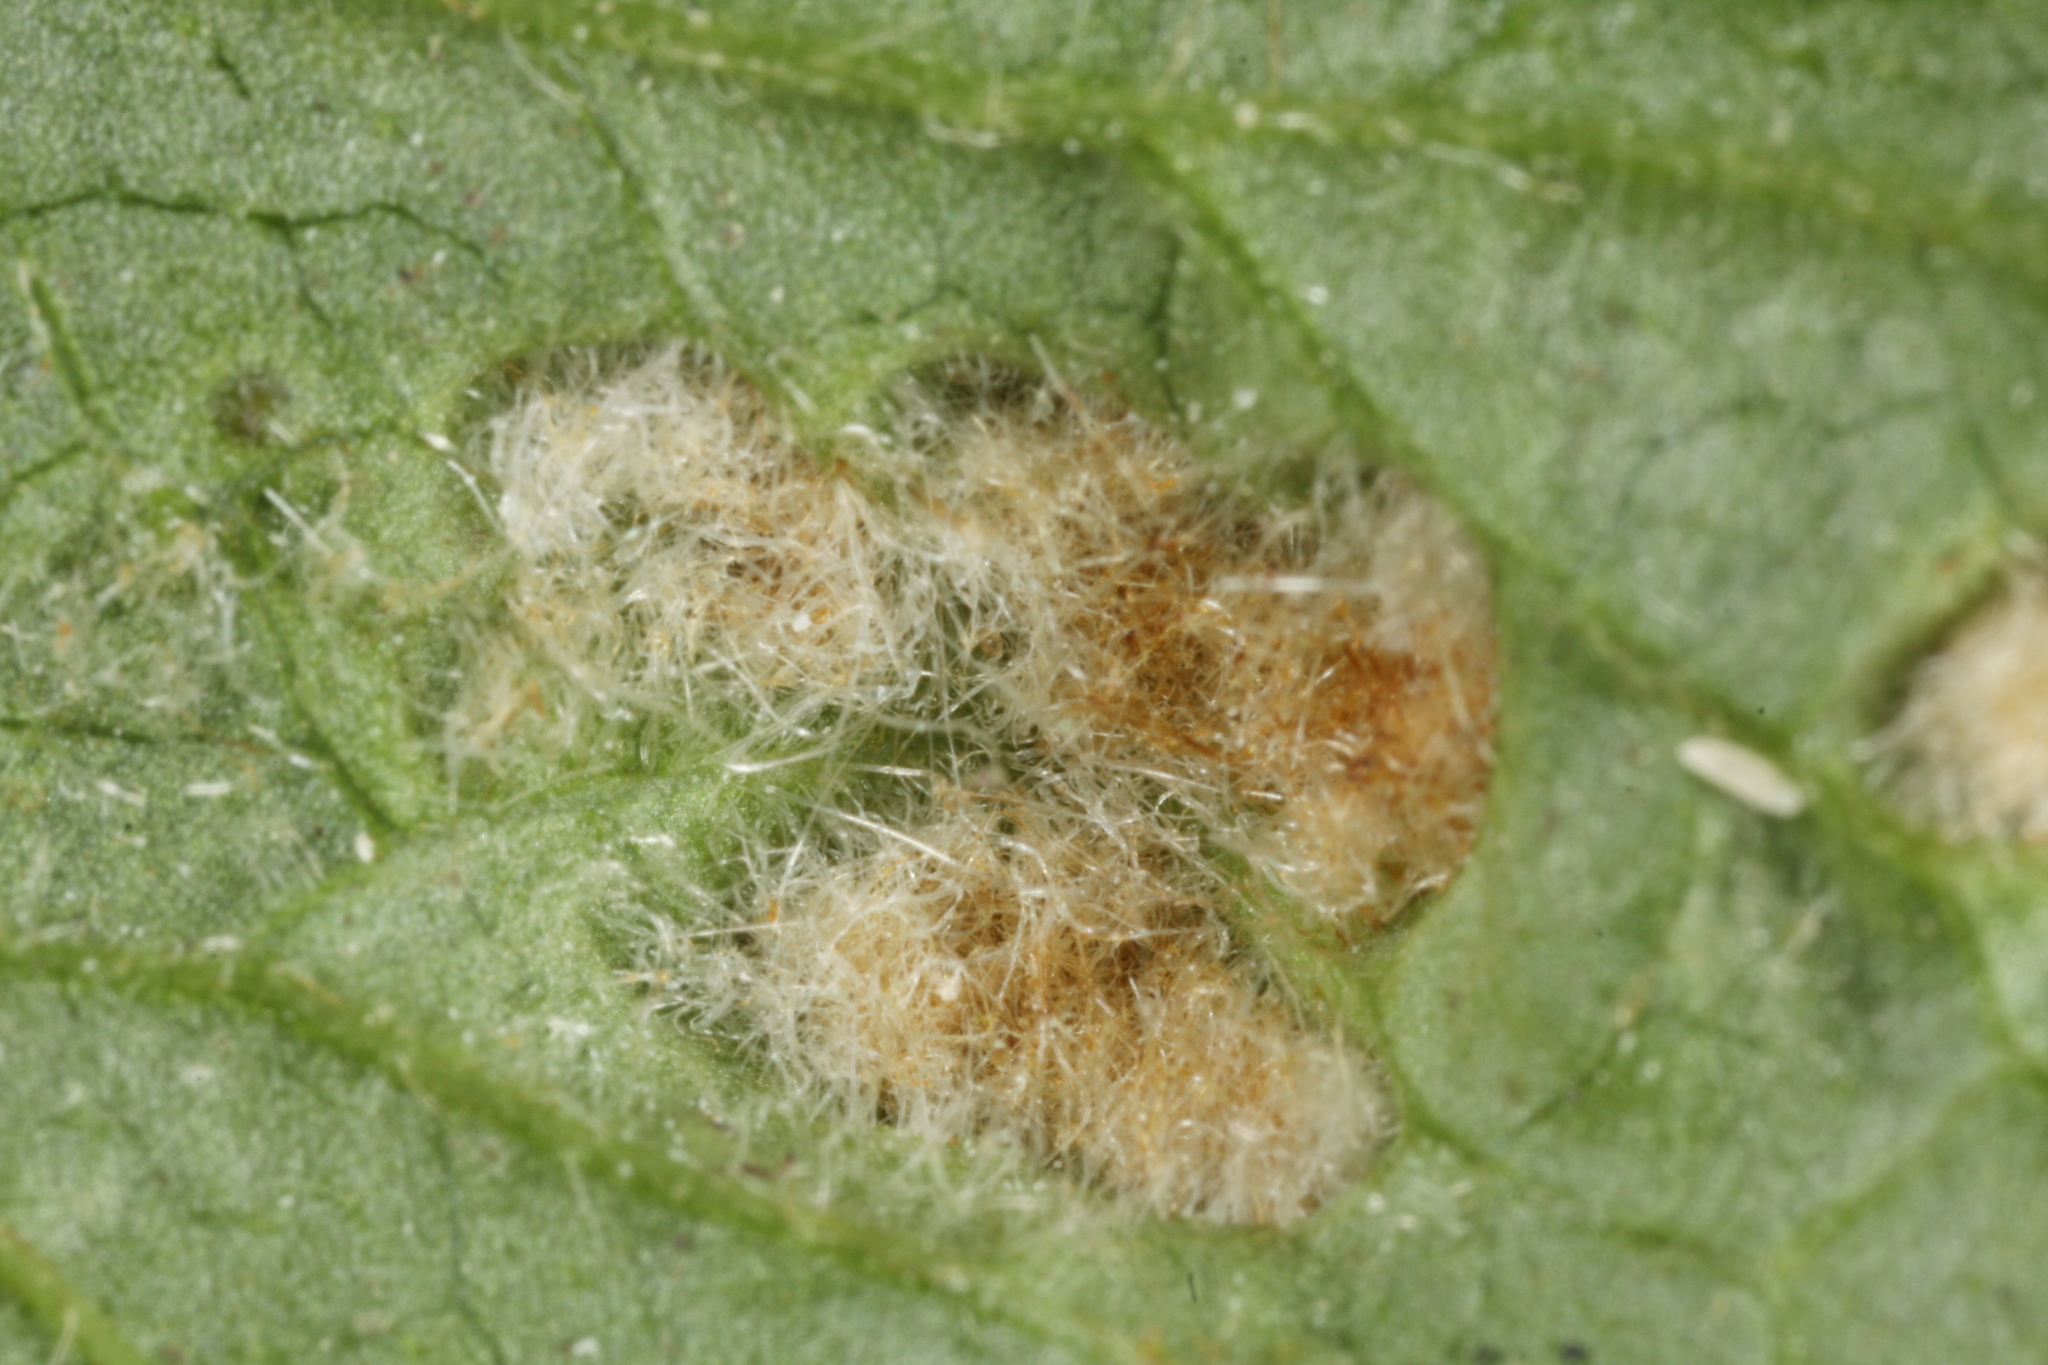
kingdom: Animalia
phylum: Arthropoda
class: Arachnida
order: Trombidiformes
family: Eriophyidae
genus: Cecidophyes
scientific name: Cecidophyes nudus
